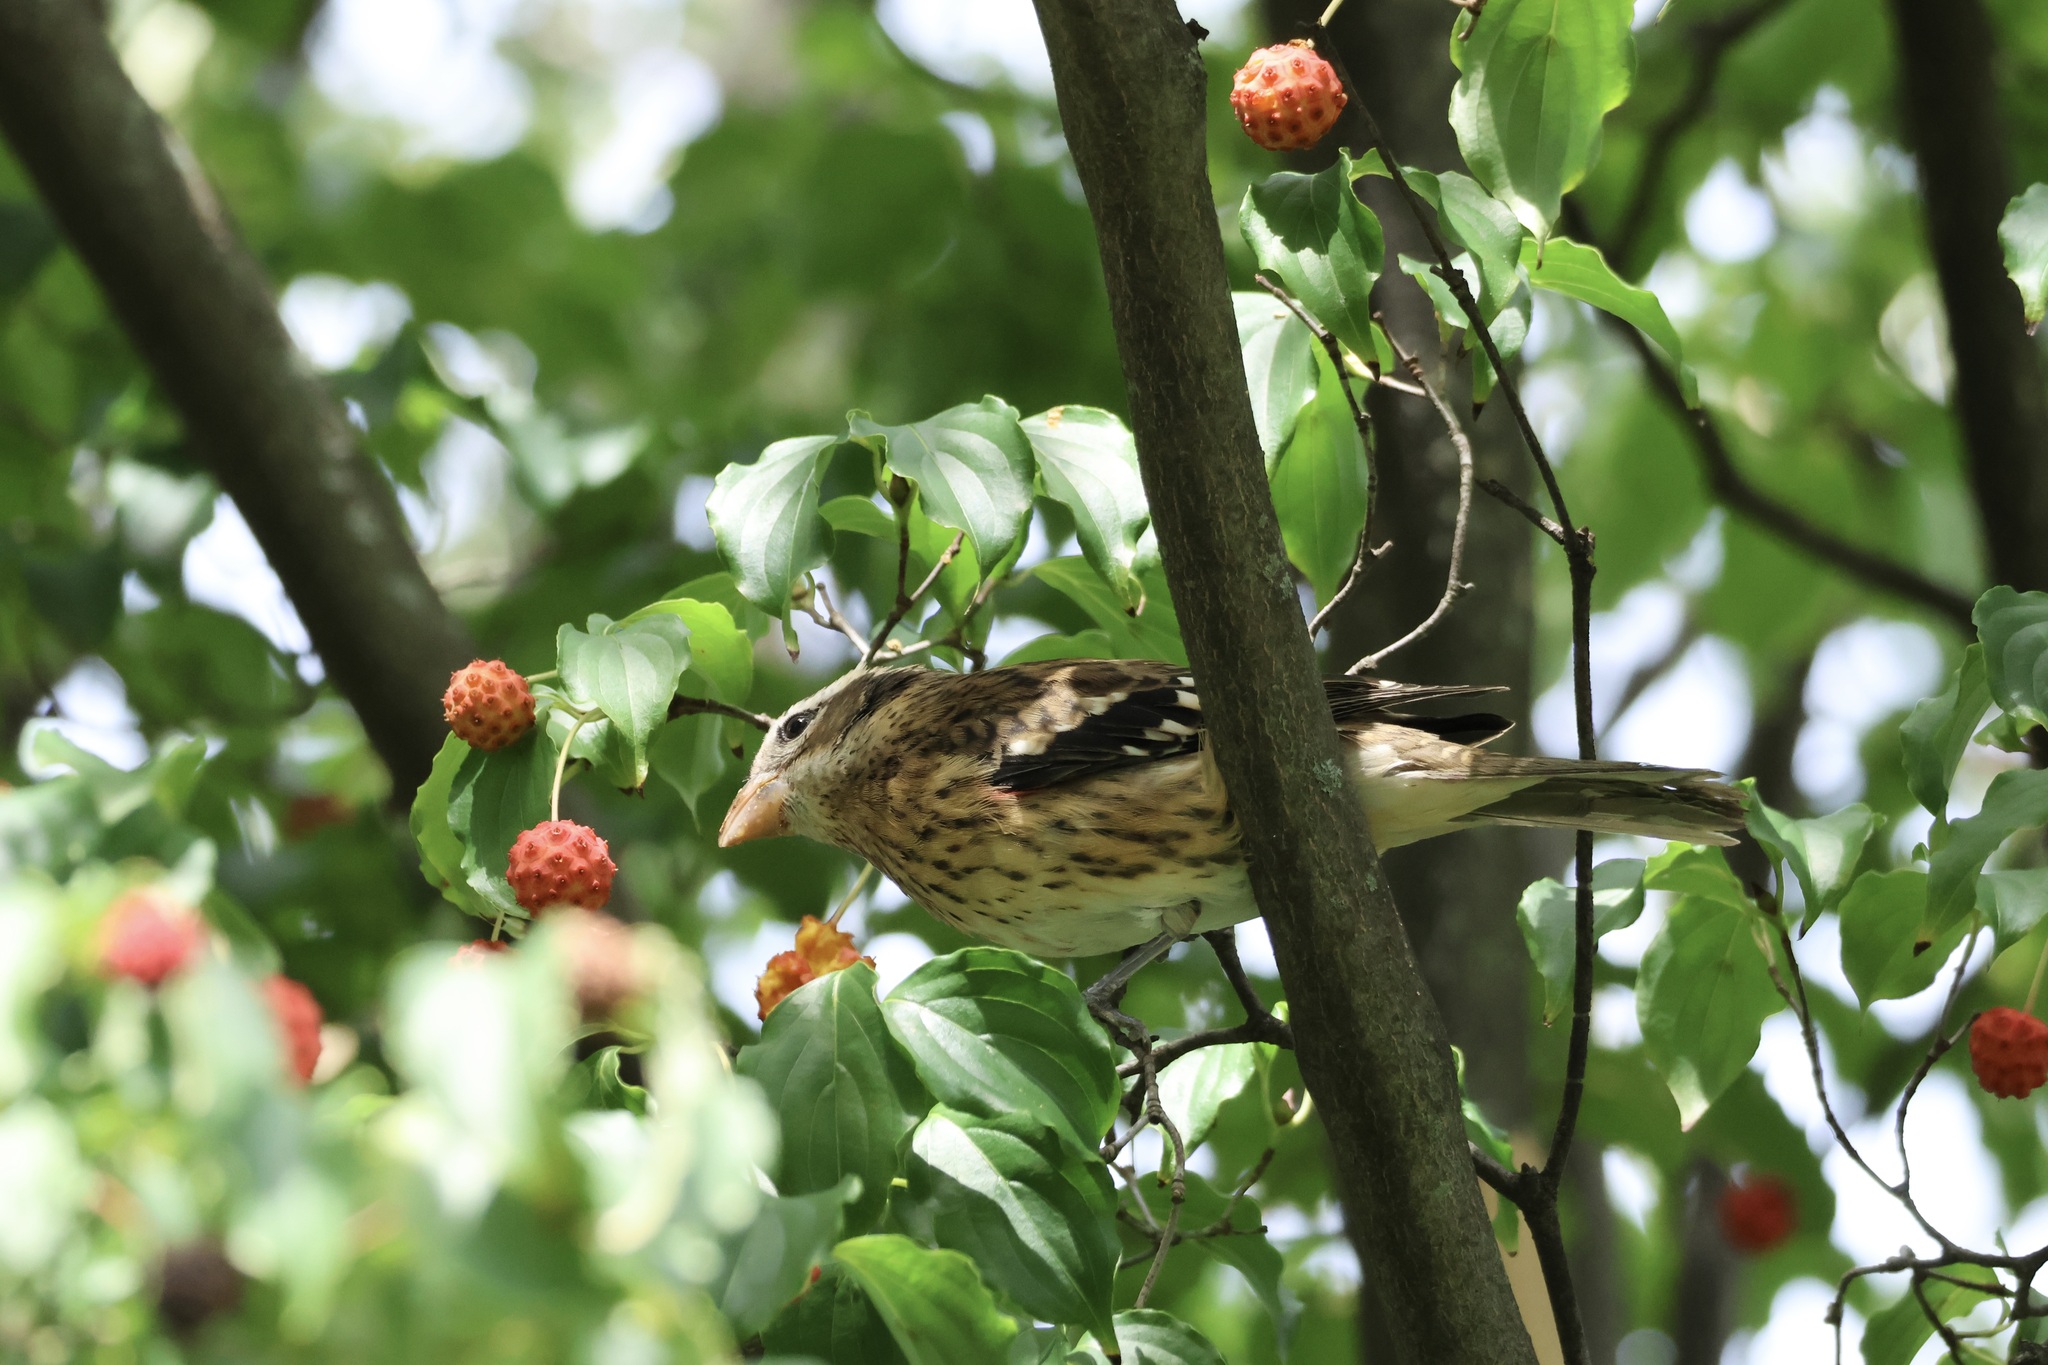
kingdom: Animalia
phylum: Chordata
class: Aves
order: Passeriformes
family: Cardinalidae
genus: Pheucticus
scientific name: Pheucticus ludovicianus
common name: Rose-breasted grosbeak
